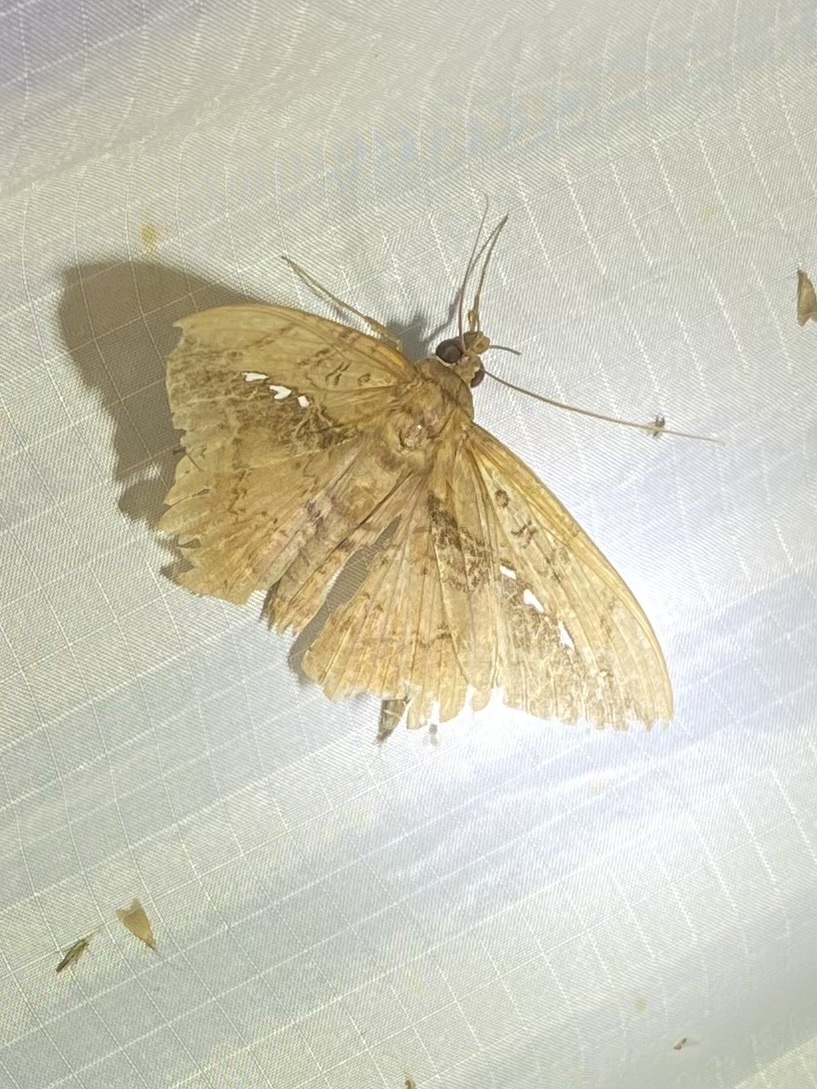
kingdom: Animalia
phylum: Arthropoda
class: Insecta
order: Lepidoptera
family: Erebidae
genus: Hemeroblemma
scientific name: Hemeroblemma acron
